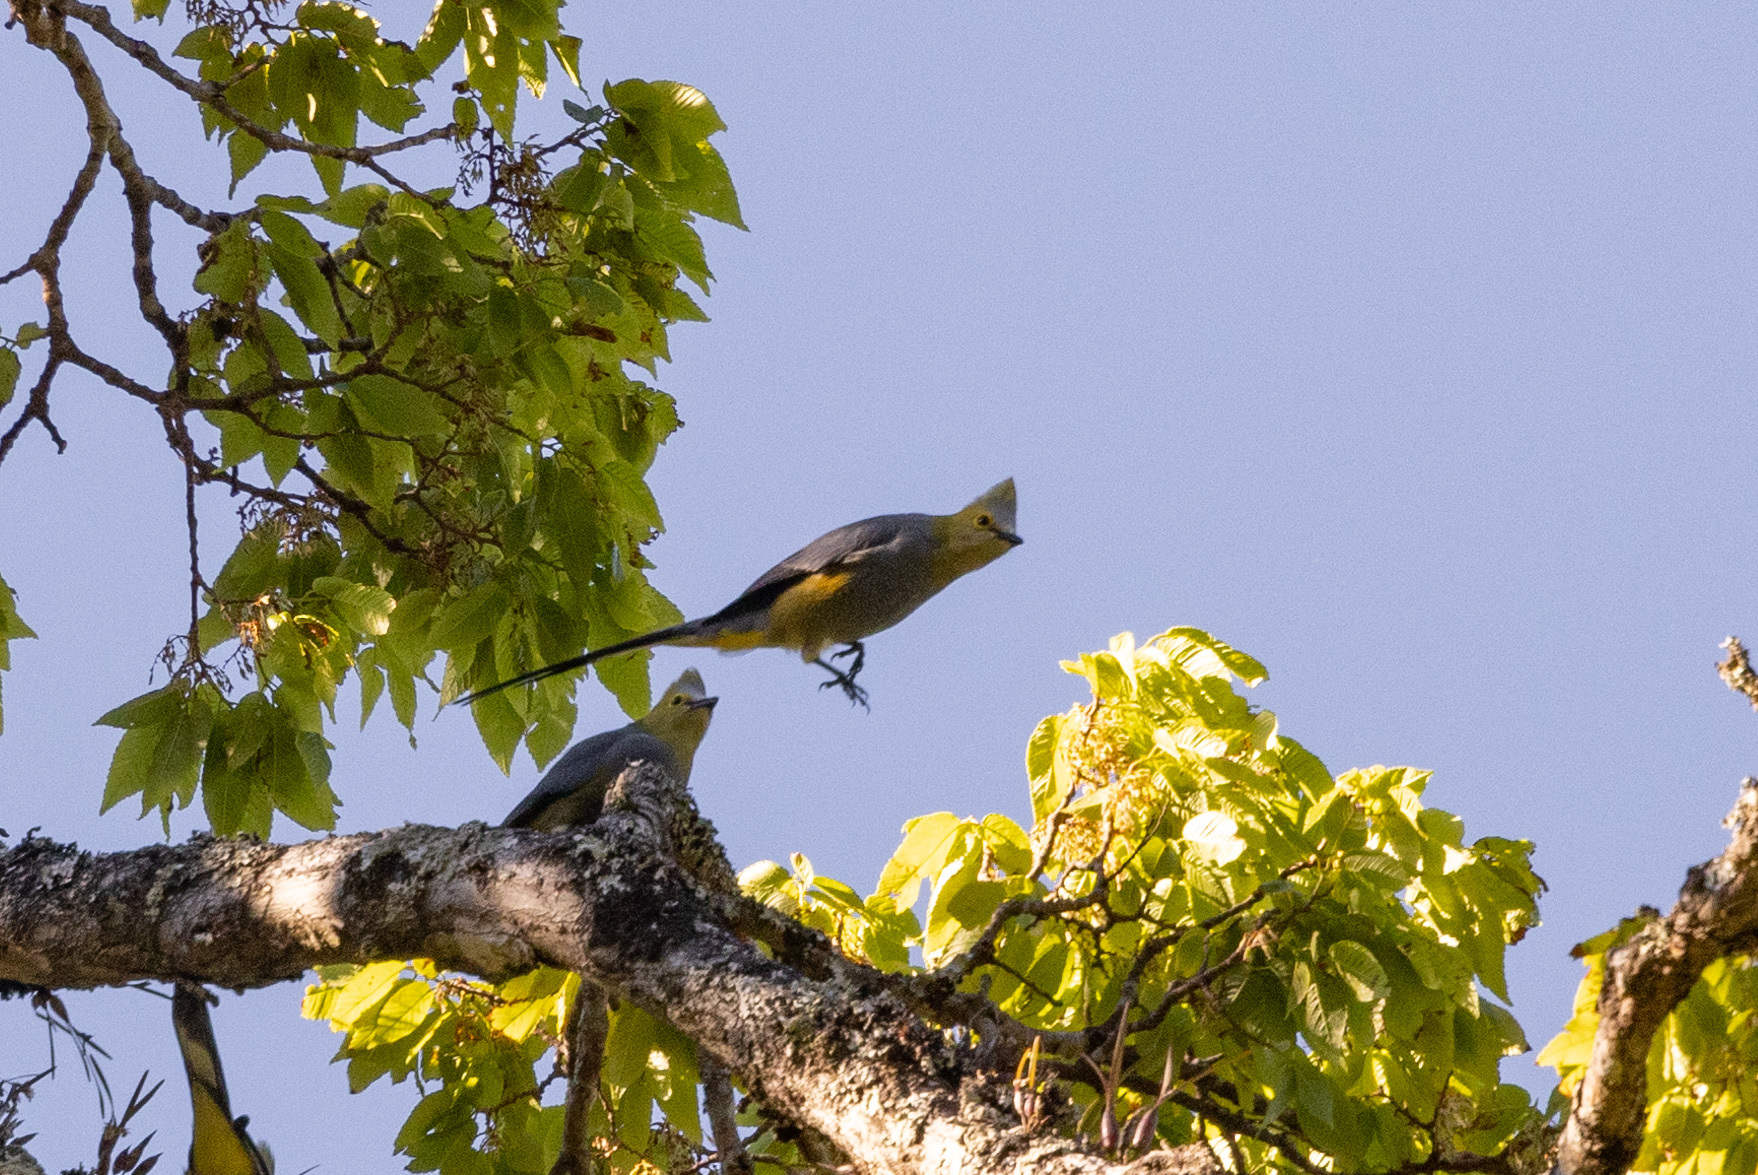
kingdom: Animalia
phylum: Chordata
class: Aves
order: Passeriformes
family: Ptilogonatidae
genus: Ptilogonys
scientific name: Ptilogonys caudatus
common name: Long-tailed silky-flycatcher
